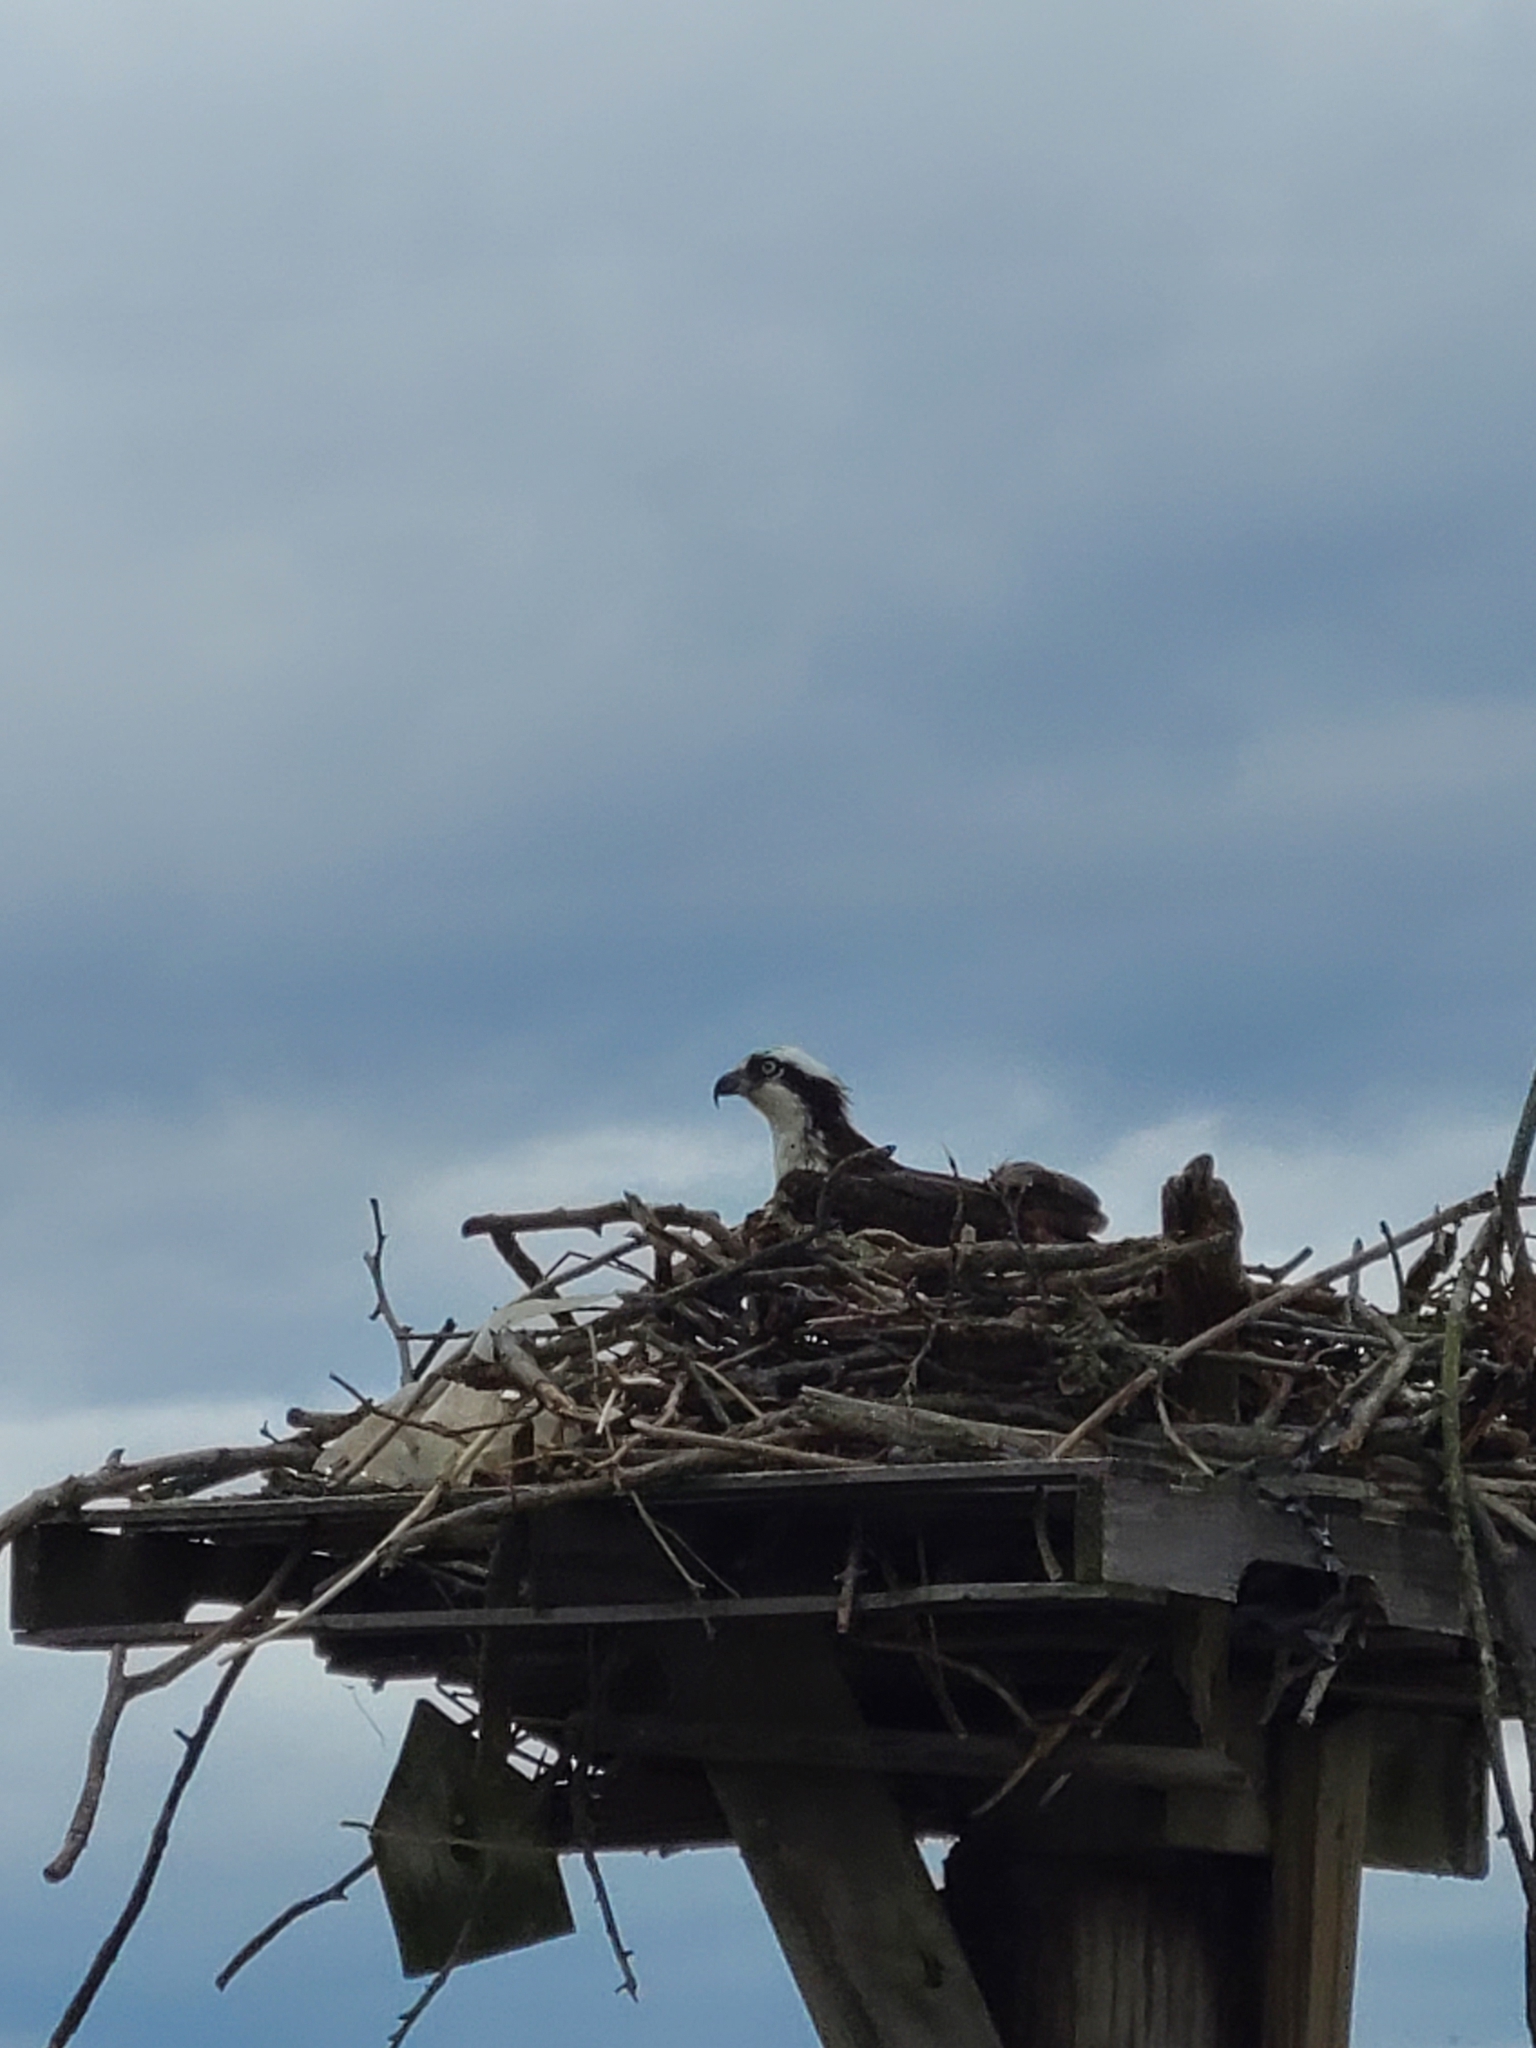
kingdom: Animalia
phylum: Chordata
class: Aves
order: Accipitriformes
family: Pandionidae
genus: Pandion
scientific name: Pandion haliaetus
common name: Osprey
